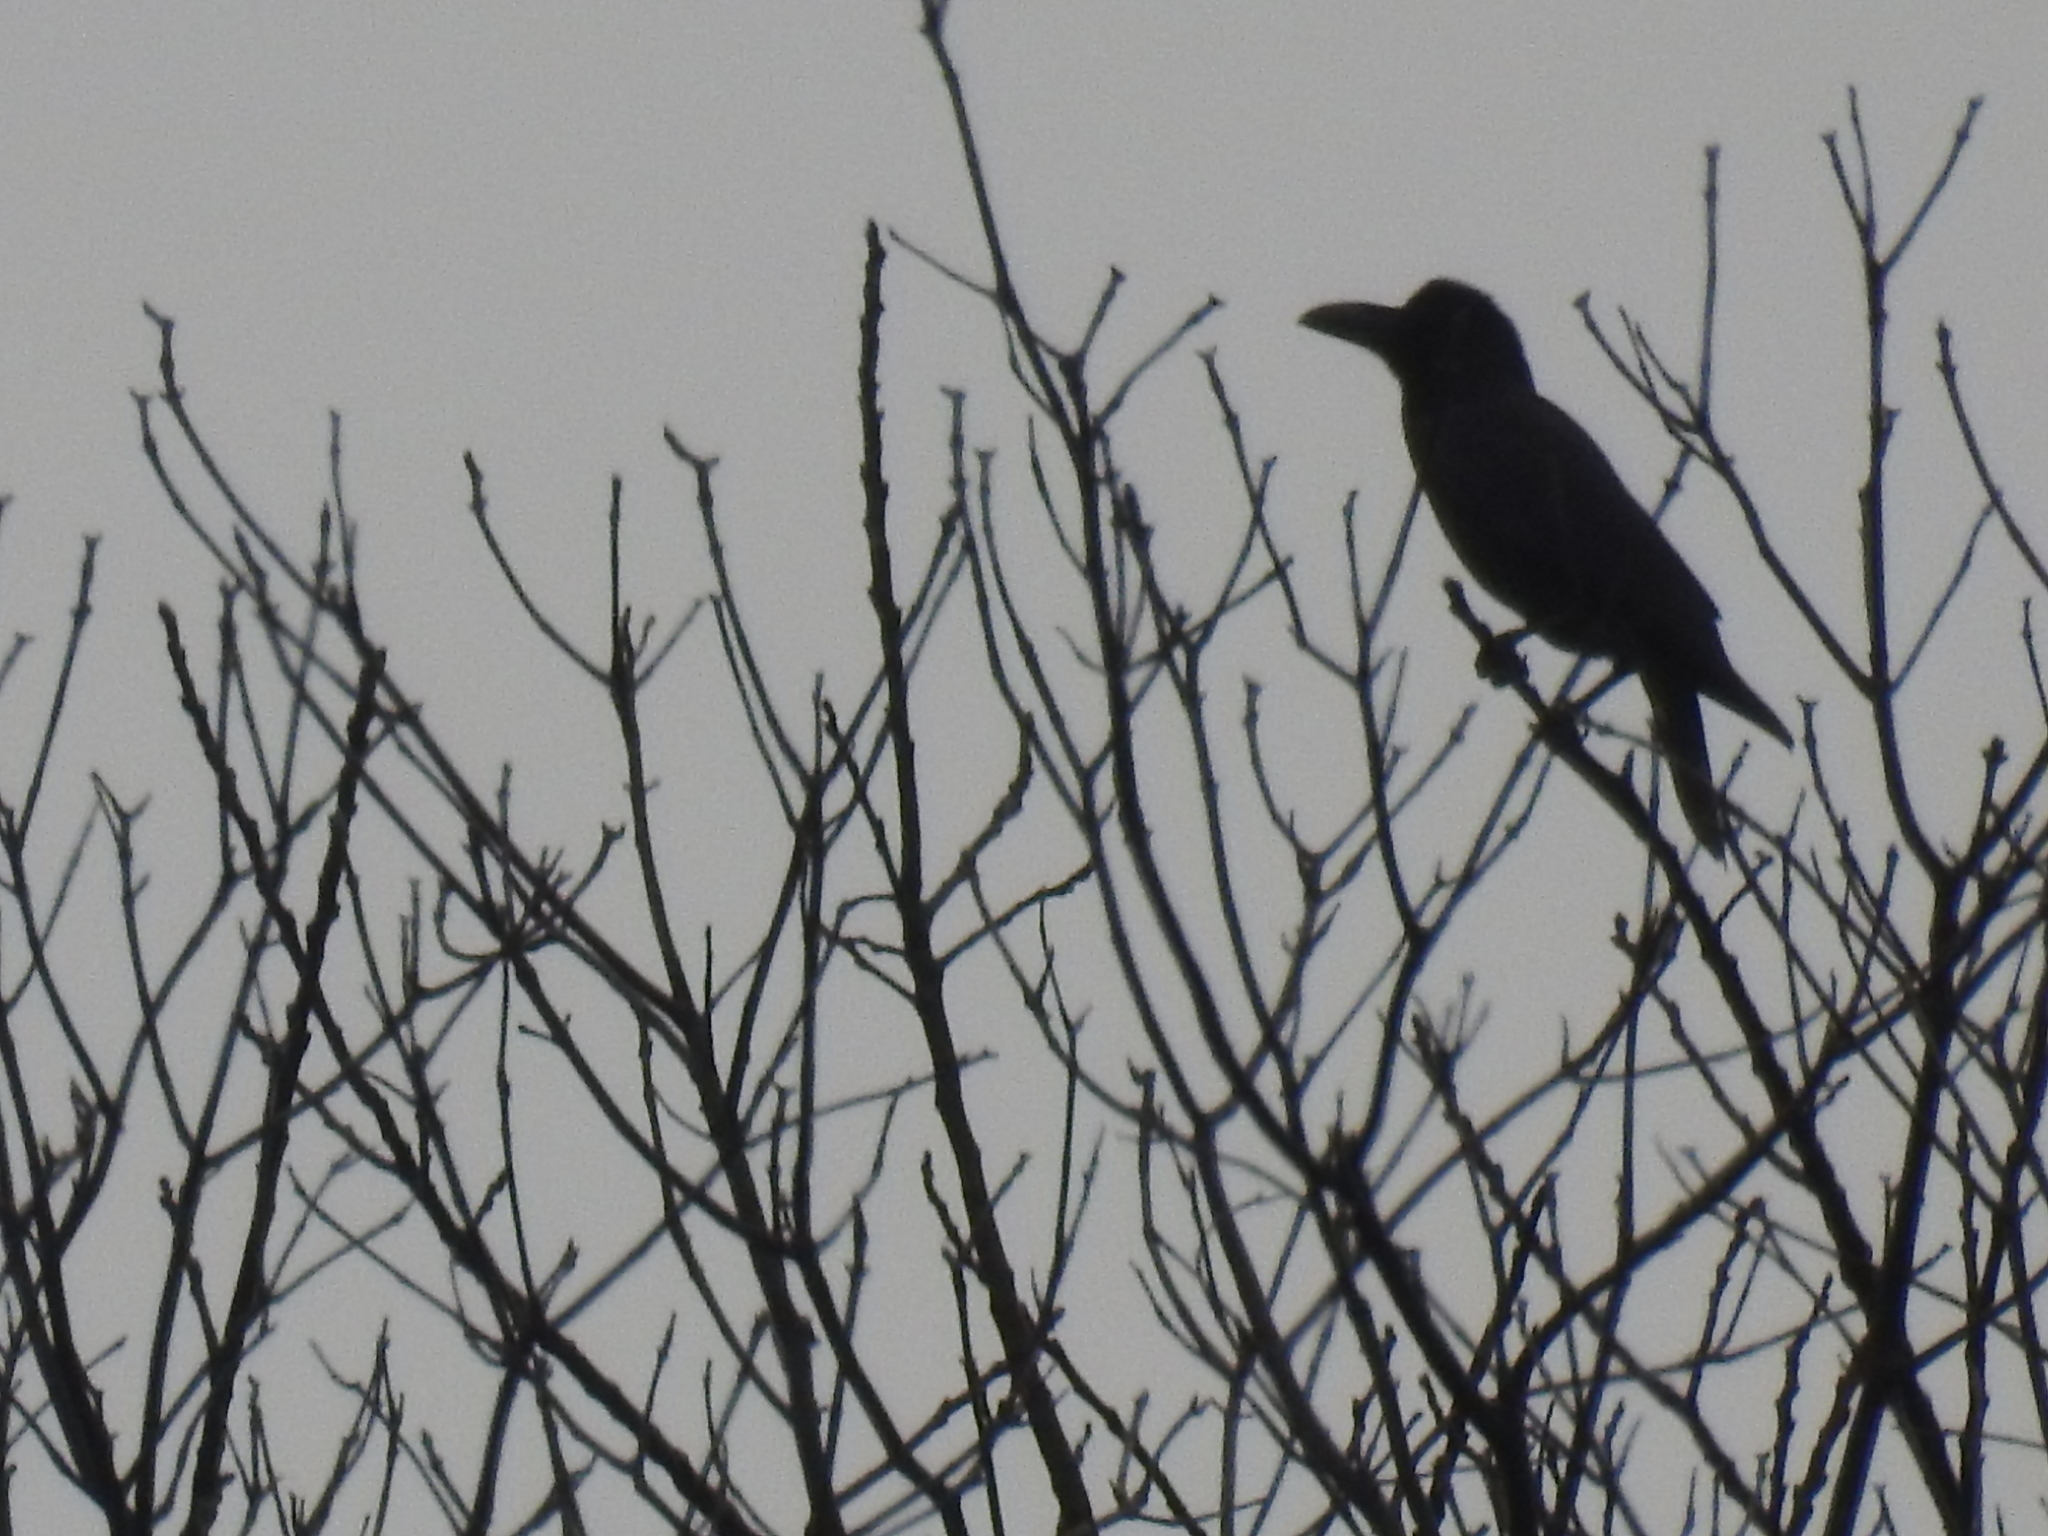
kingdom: Animalia
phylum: Chordata
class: Aves
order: Passeriformes
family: Corvidae
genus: Corvus
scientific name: Corvus macrorhynchos
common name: Large-billed crow
